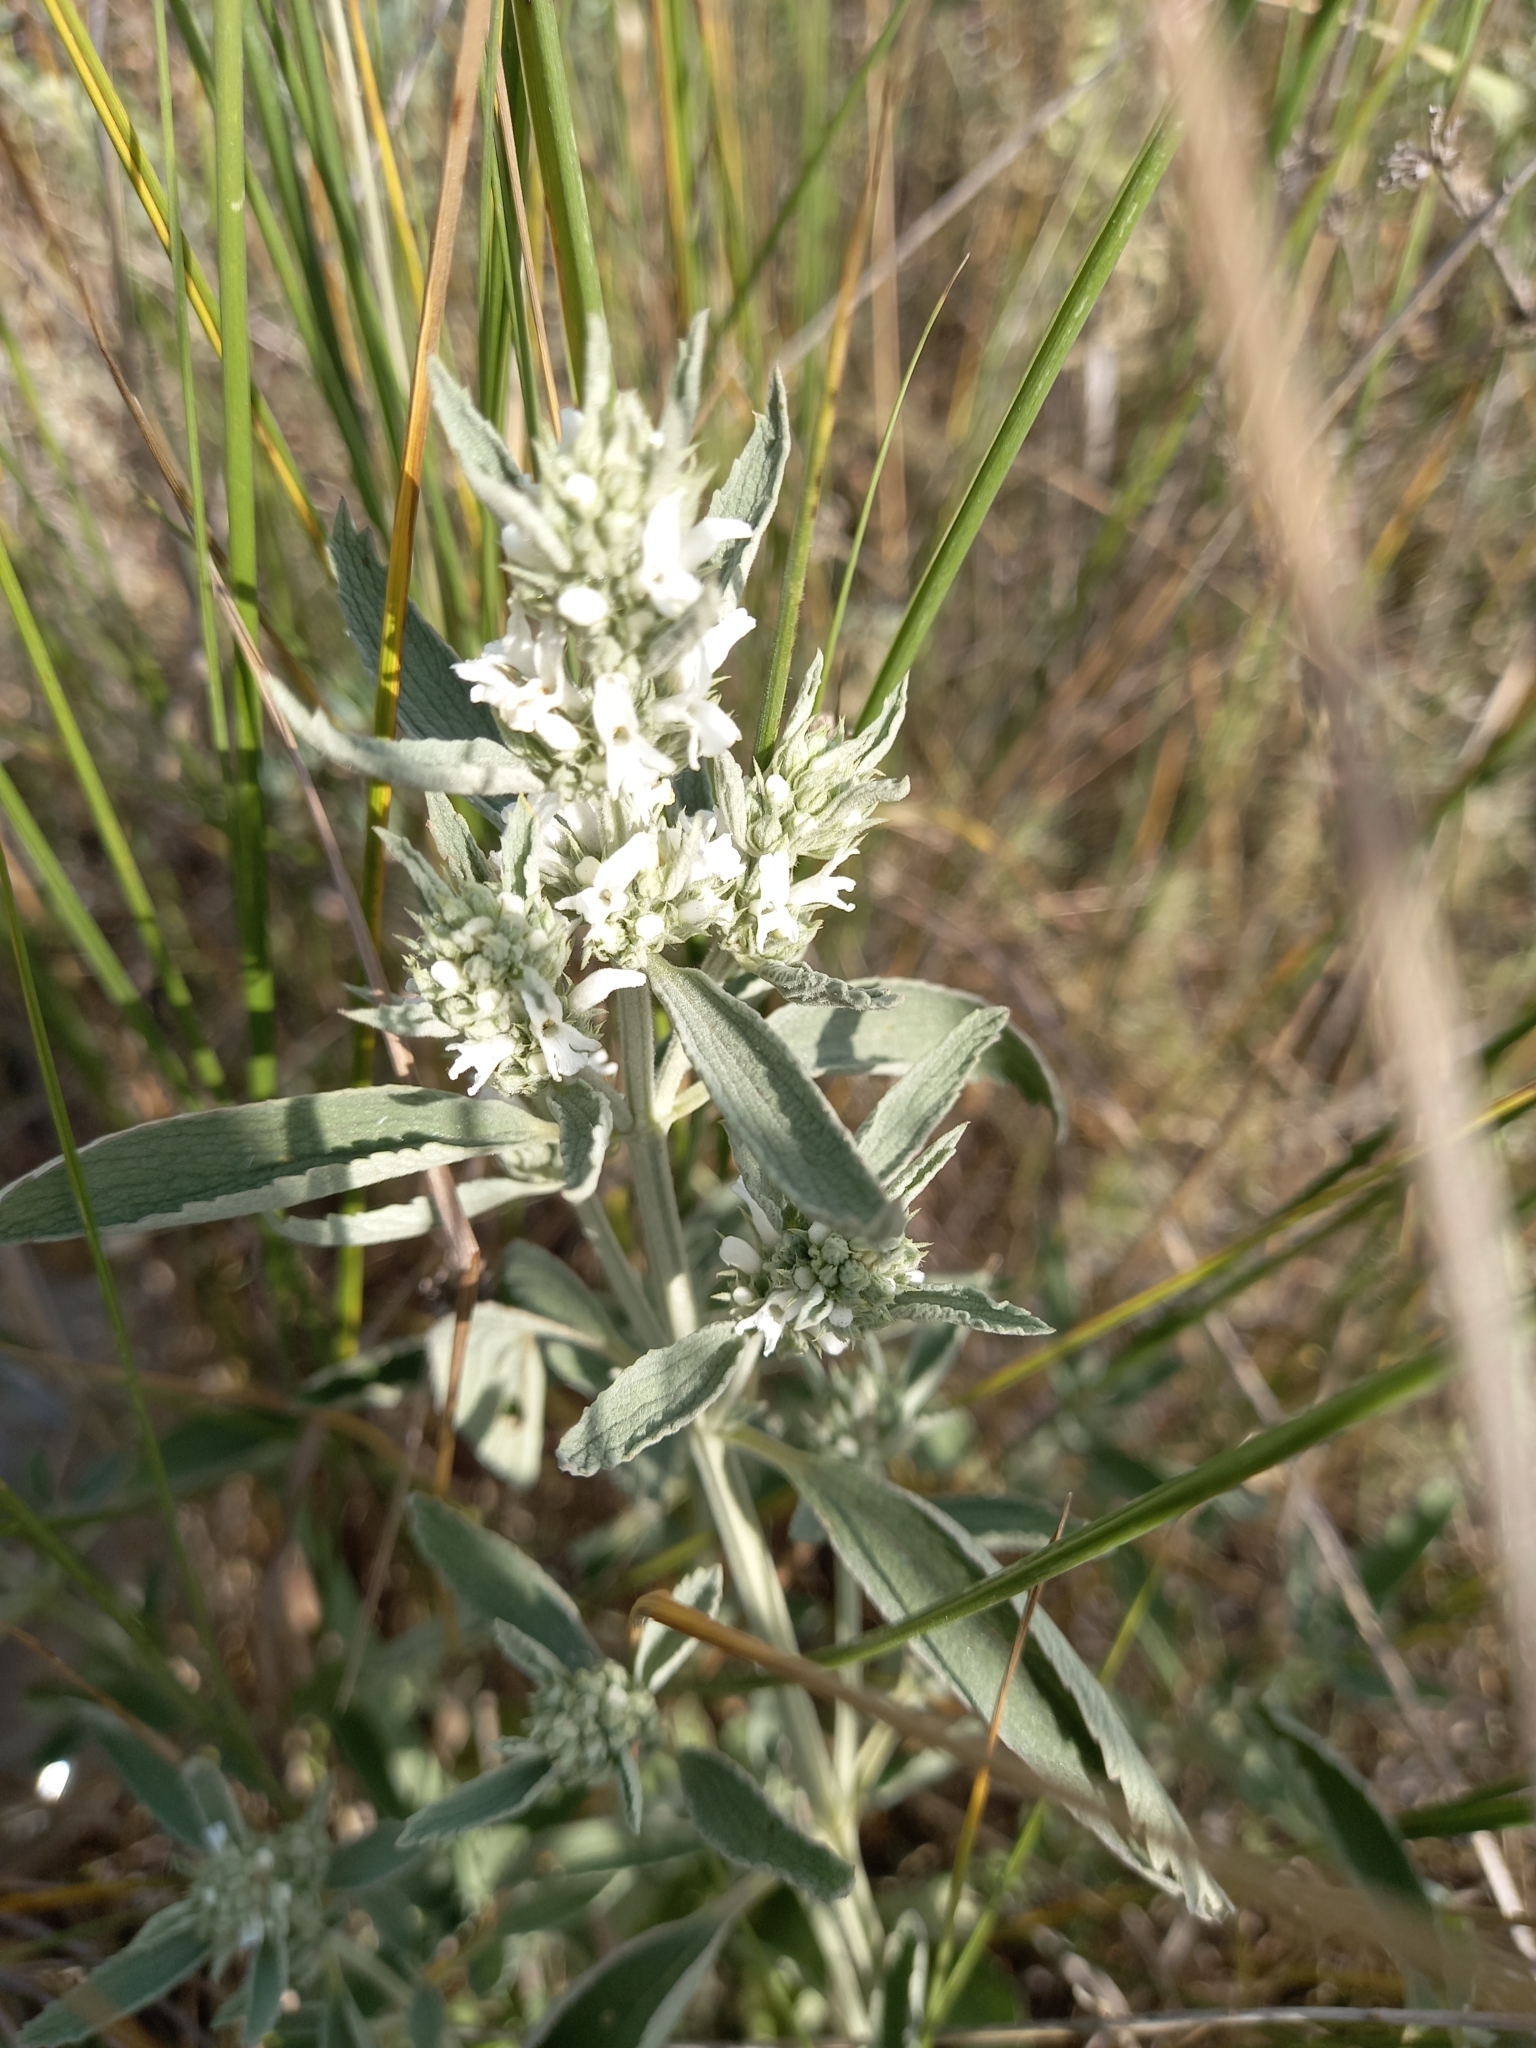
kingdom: Plantae
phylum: Tracheophyta
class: Magnoliopsida
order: Lamiales
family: Lamiaceae
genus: Marrubium
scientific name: Marrubium peregrinum
